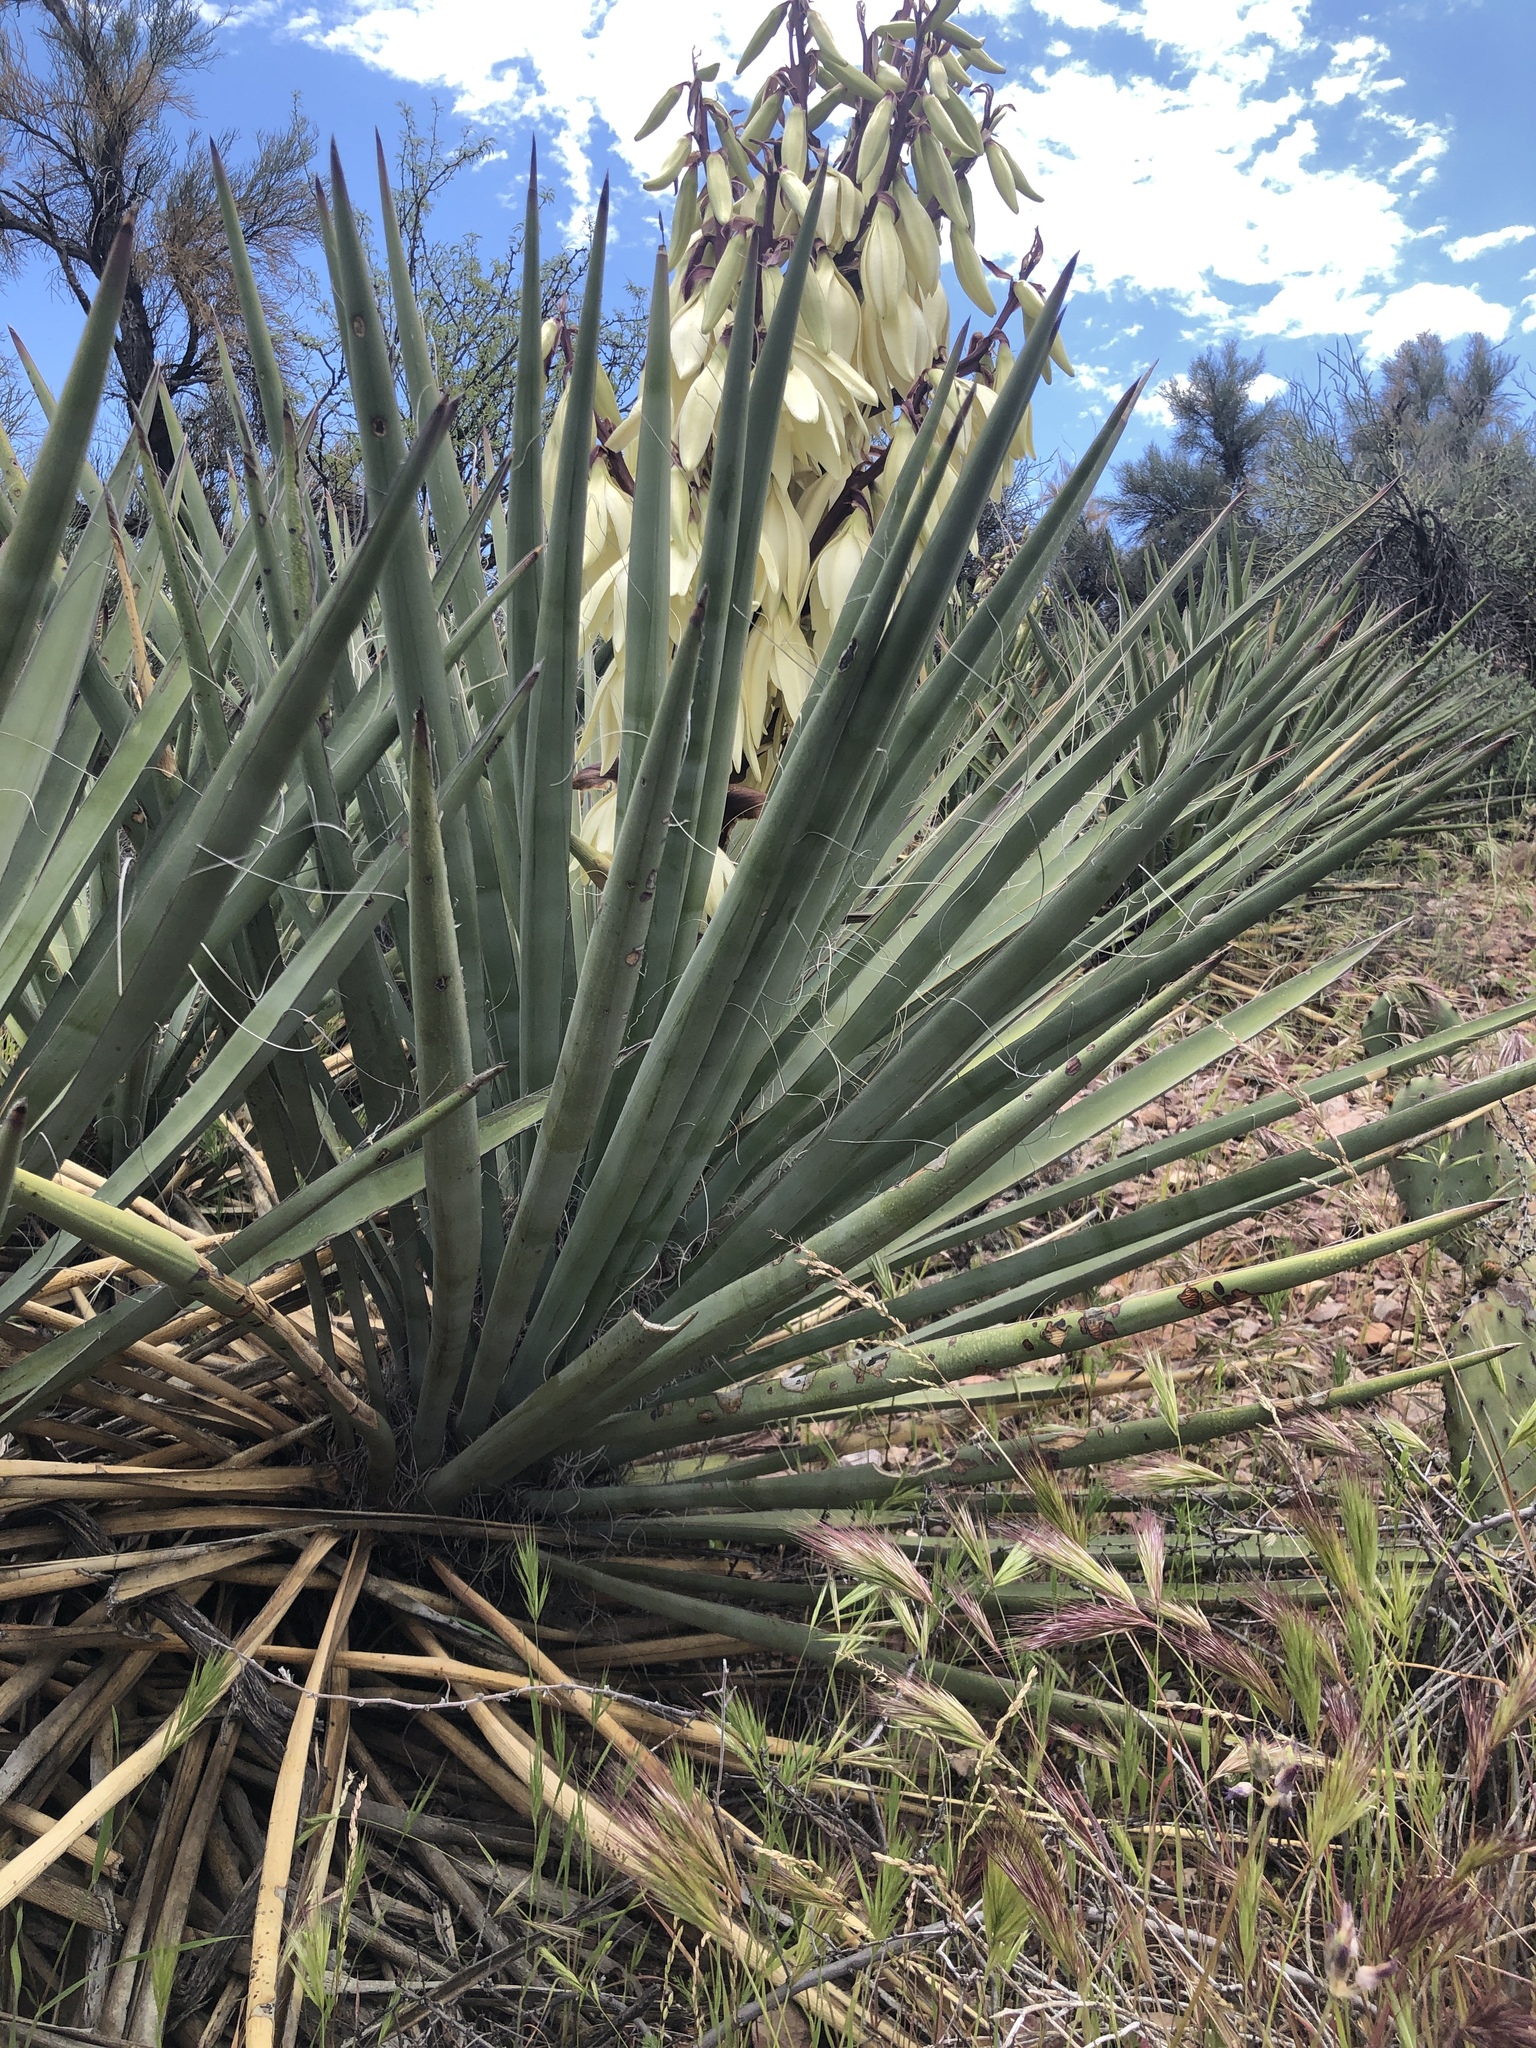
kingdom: Plantae
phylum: Tracheophyta
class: Liliopsida
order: Asparagales
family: Asparagaceae
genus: Yucca
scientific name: Yucca baccata
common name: Banana yucca
